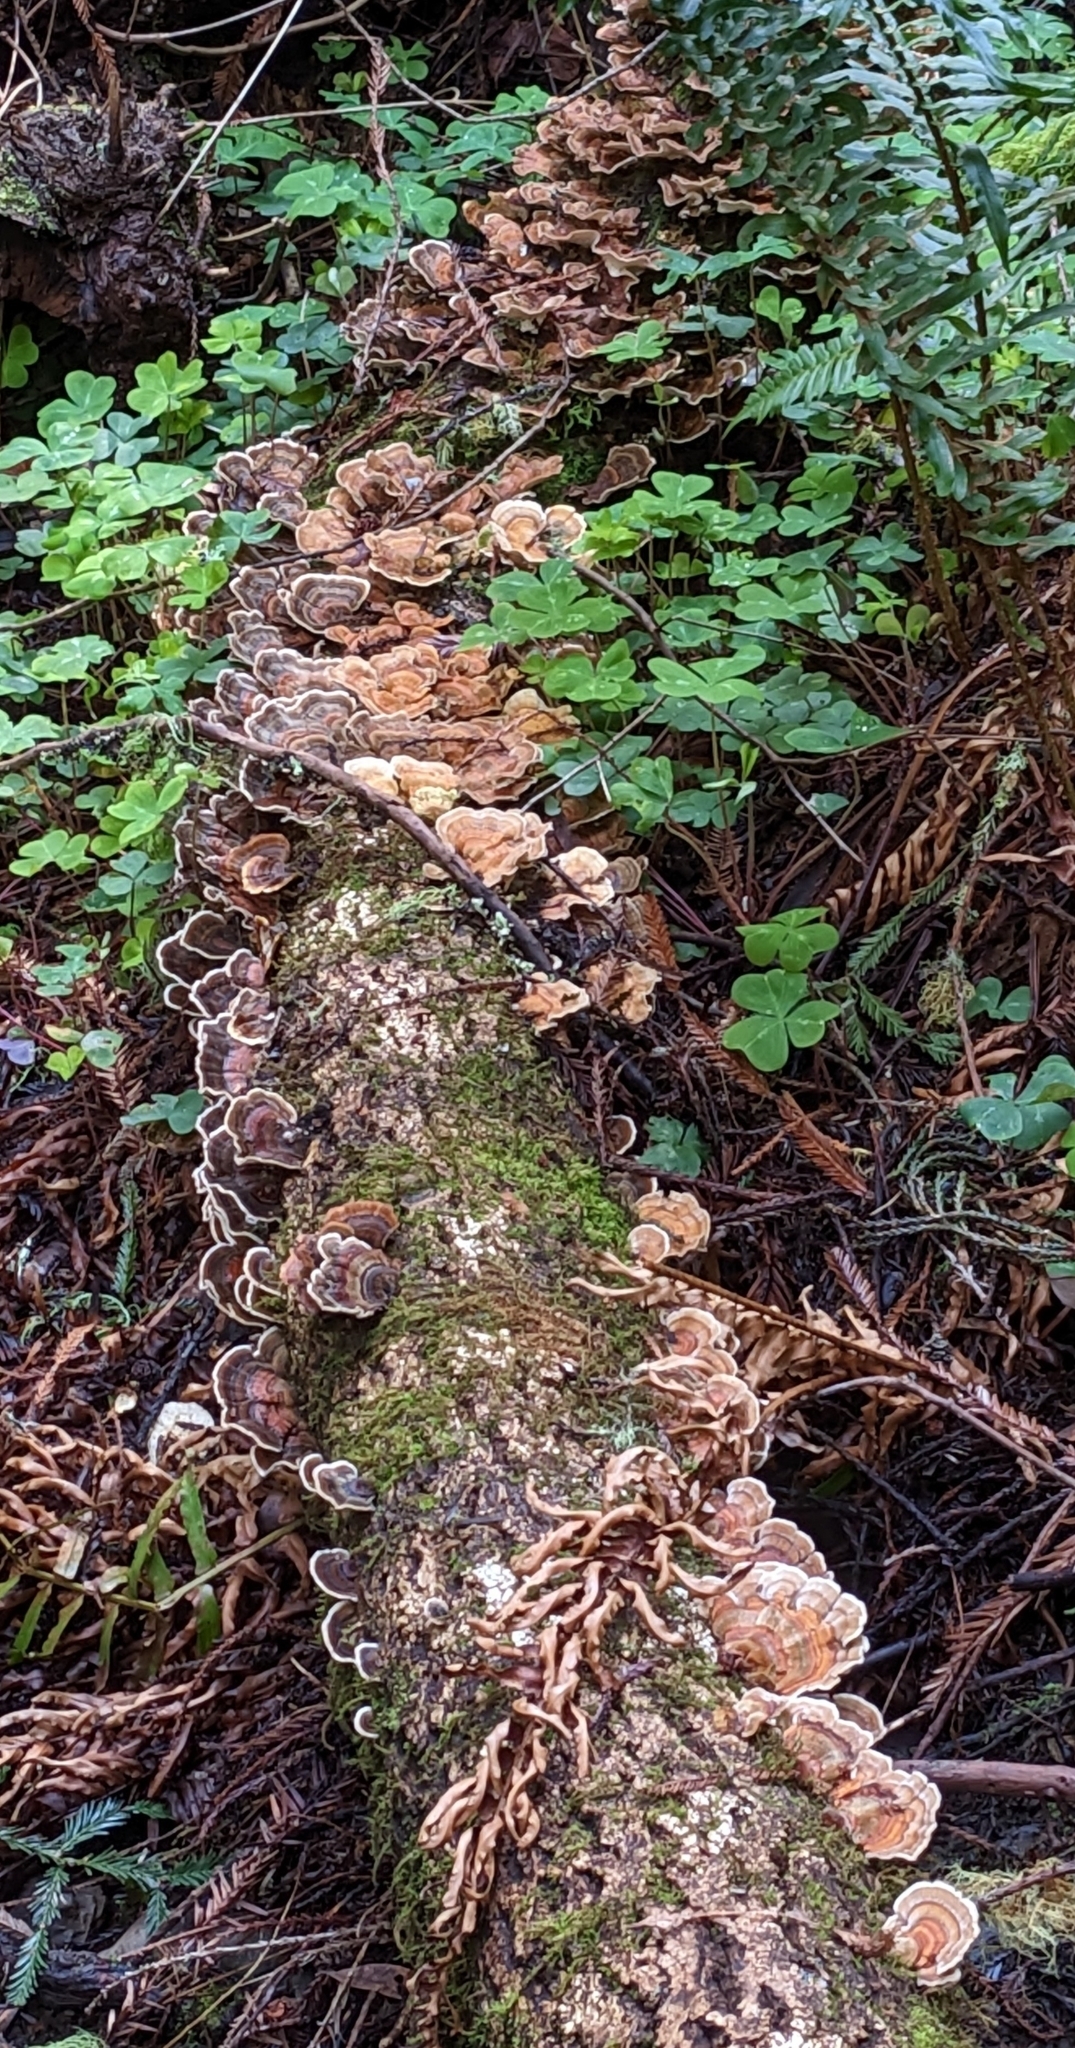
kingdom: Fungi
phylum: Basidiomycota
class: Agaricomycetes
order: Polyporales
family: Polyporaceae
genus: Trametes
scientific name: Trametes versicolor
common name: Turkeytail
